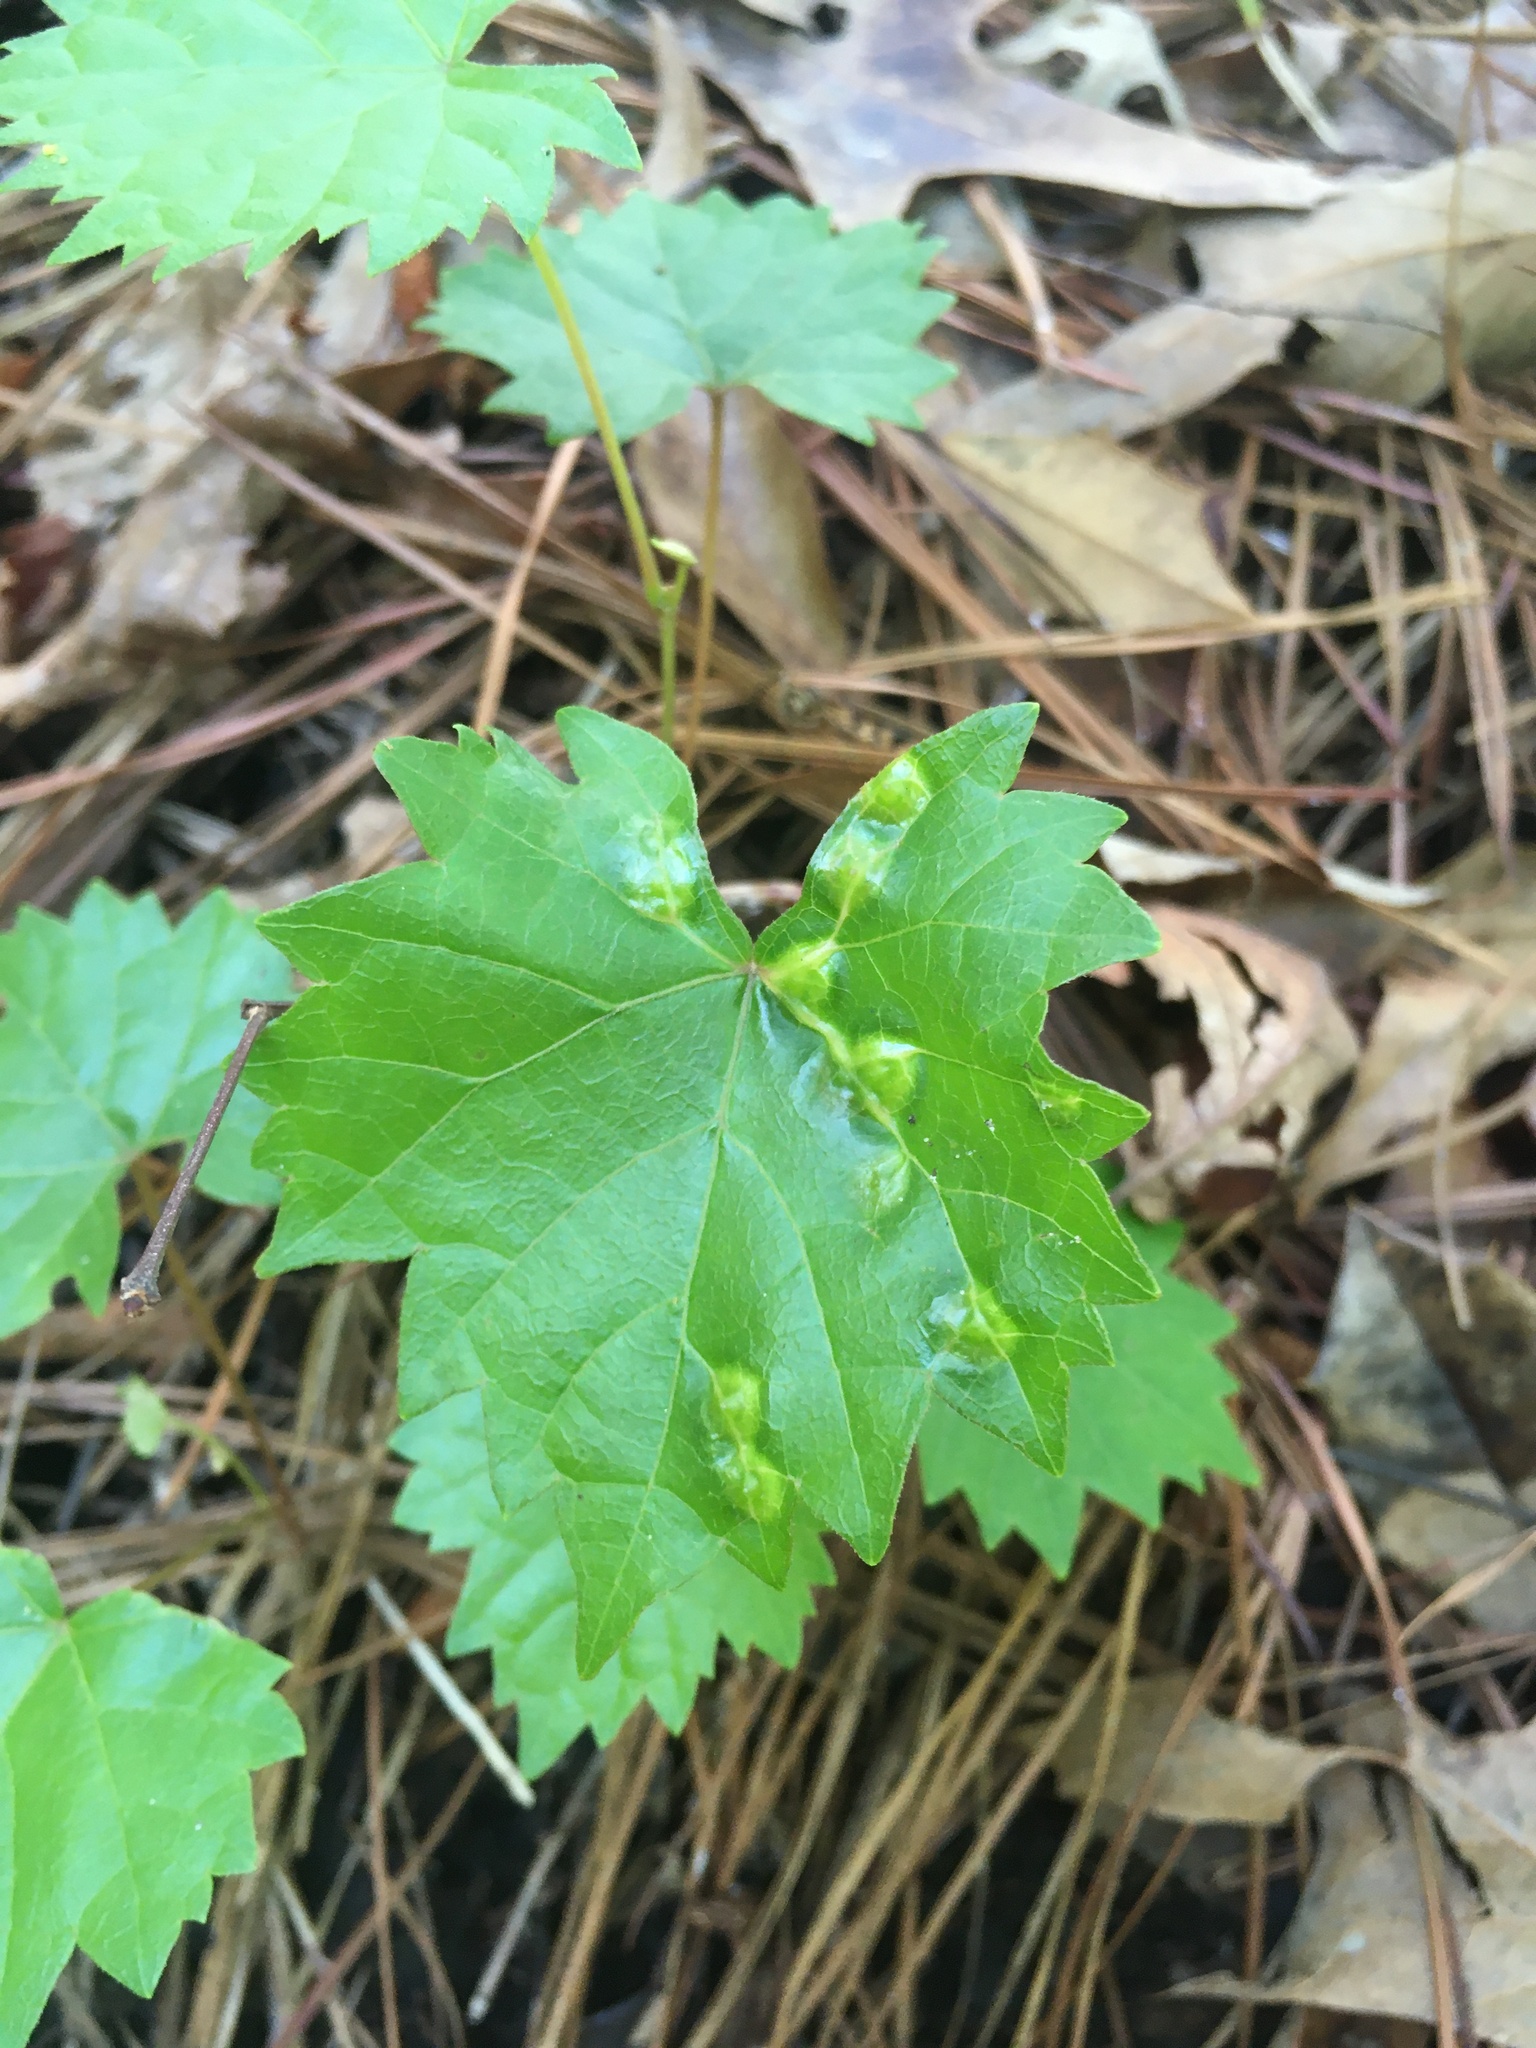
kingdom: Animalia
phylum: Arthropoda
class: Insecta
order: Diptera
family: Cecidomyiidae
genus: Vitisiella
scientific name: Vitisiella brevicauda
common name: Grape tumid gallmaker midge
